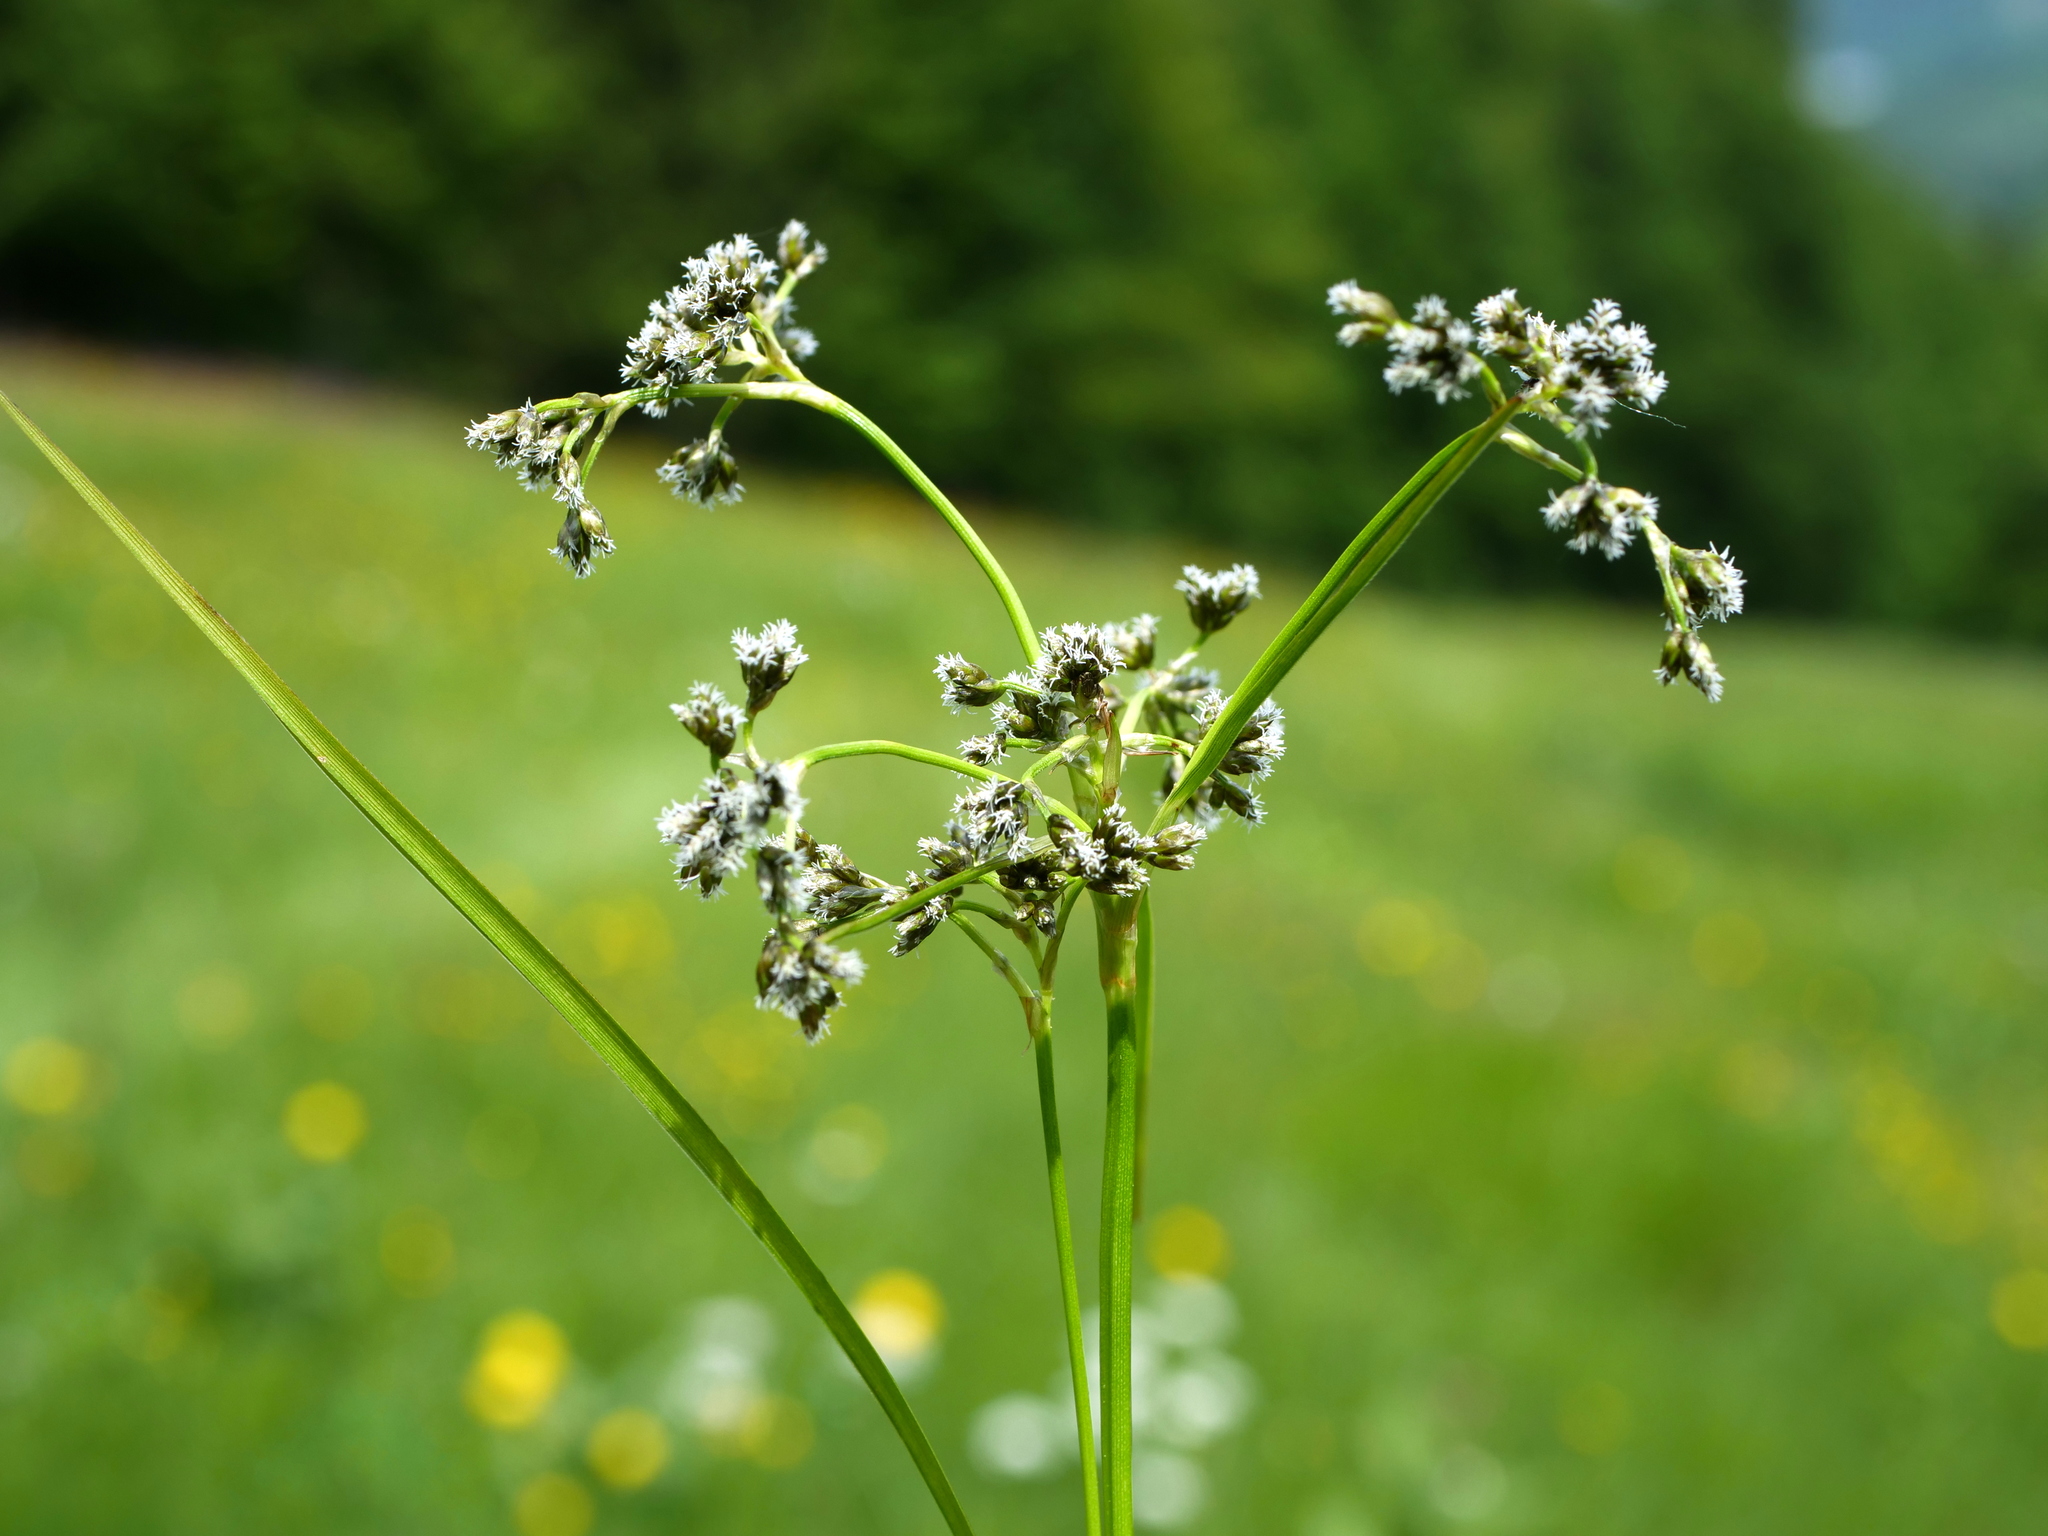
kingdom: Plantae
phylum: Tracheophyta
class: Liliopsida
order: Poales
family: Cyperaceae
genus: Scirpus
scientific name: Scirpus sylvaticus
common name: Wood club-rush
